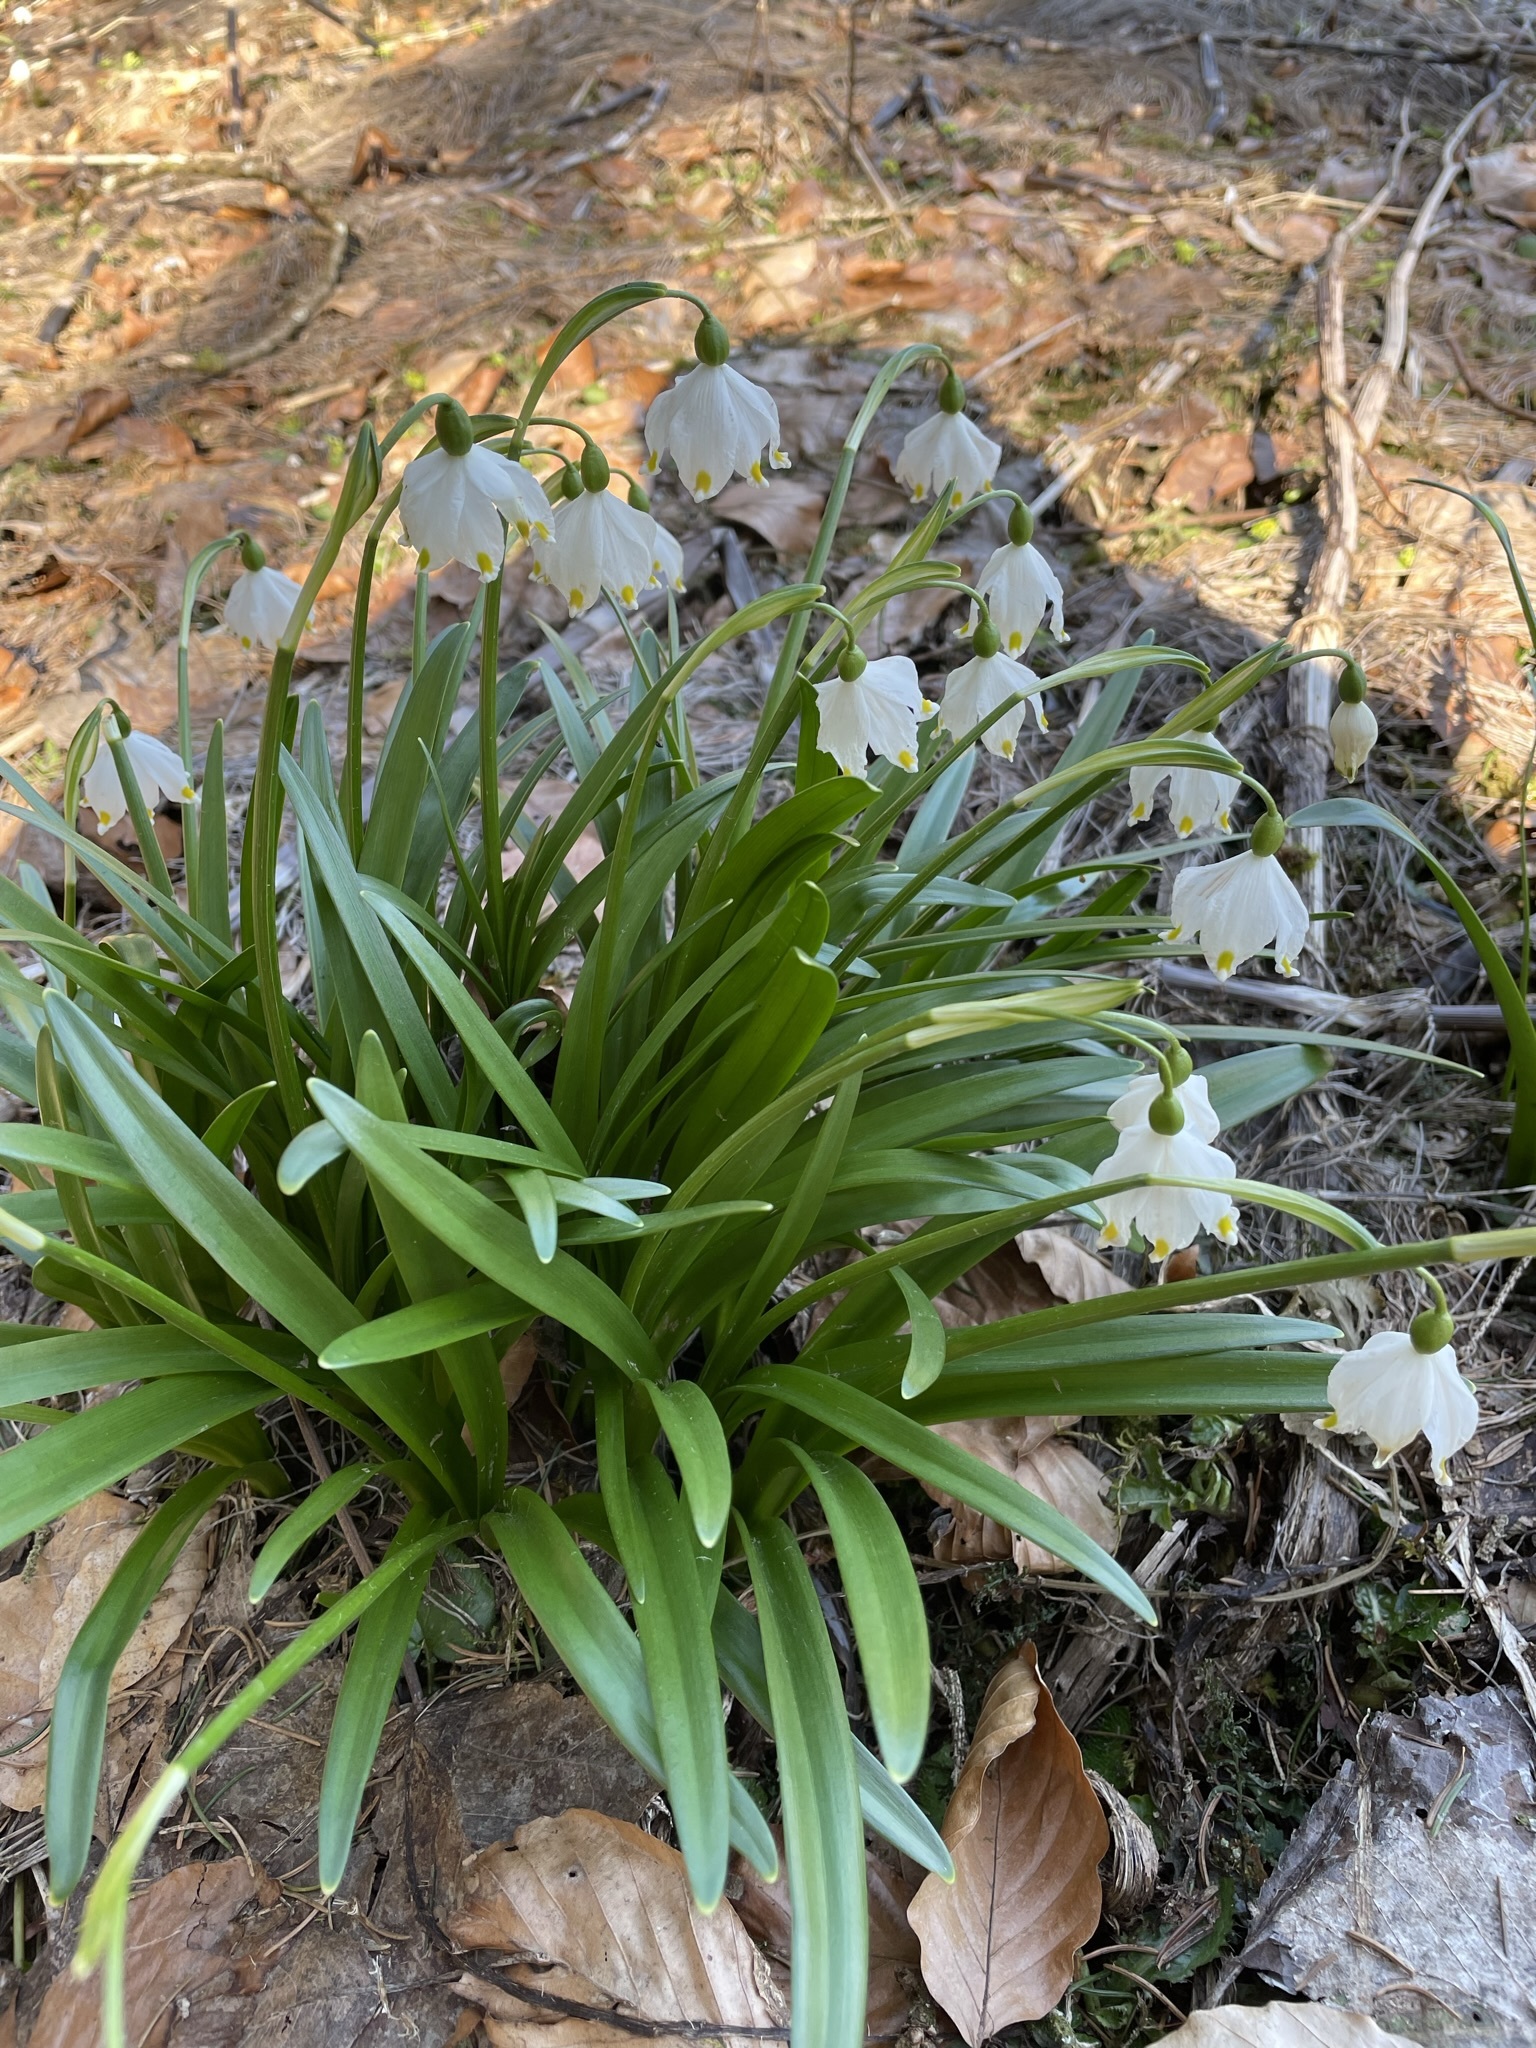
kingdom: Plantae
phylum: Tracheophyta
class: Liliopsida
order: Asparagales
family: Amaryllidaceae
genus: Leucojum
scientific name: Leucojum vernum
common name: Spring snowflake
